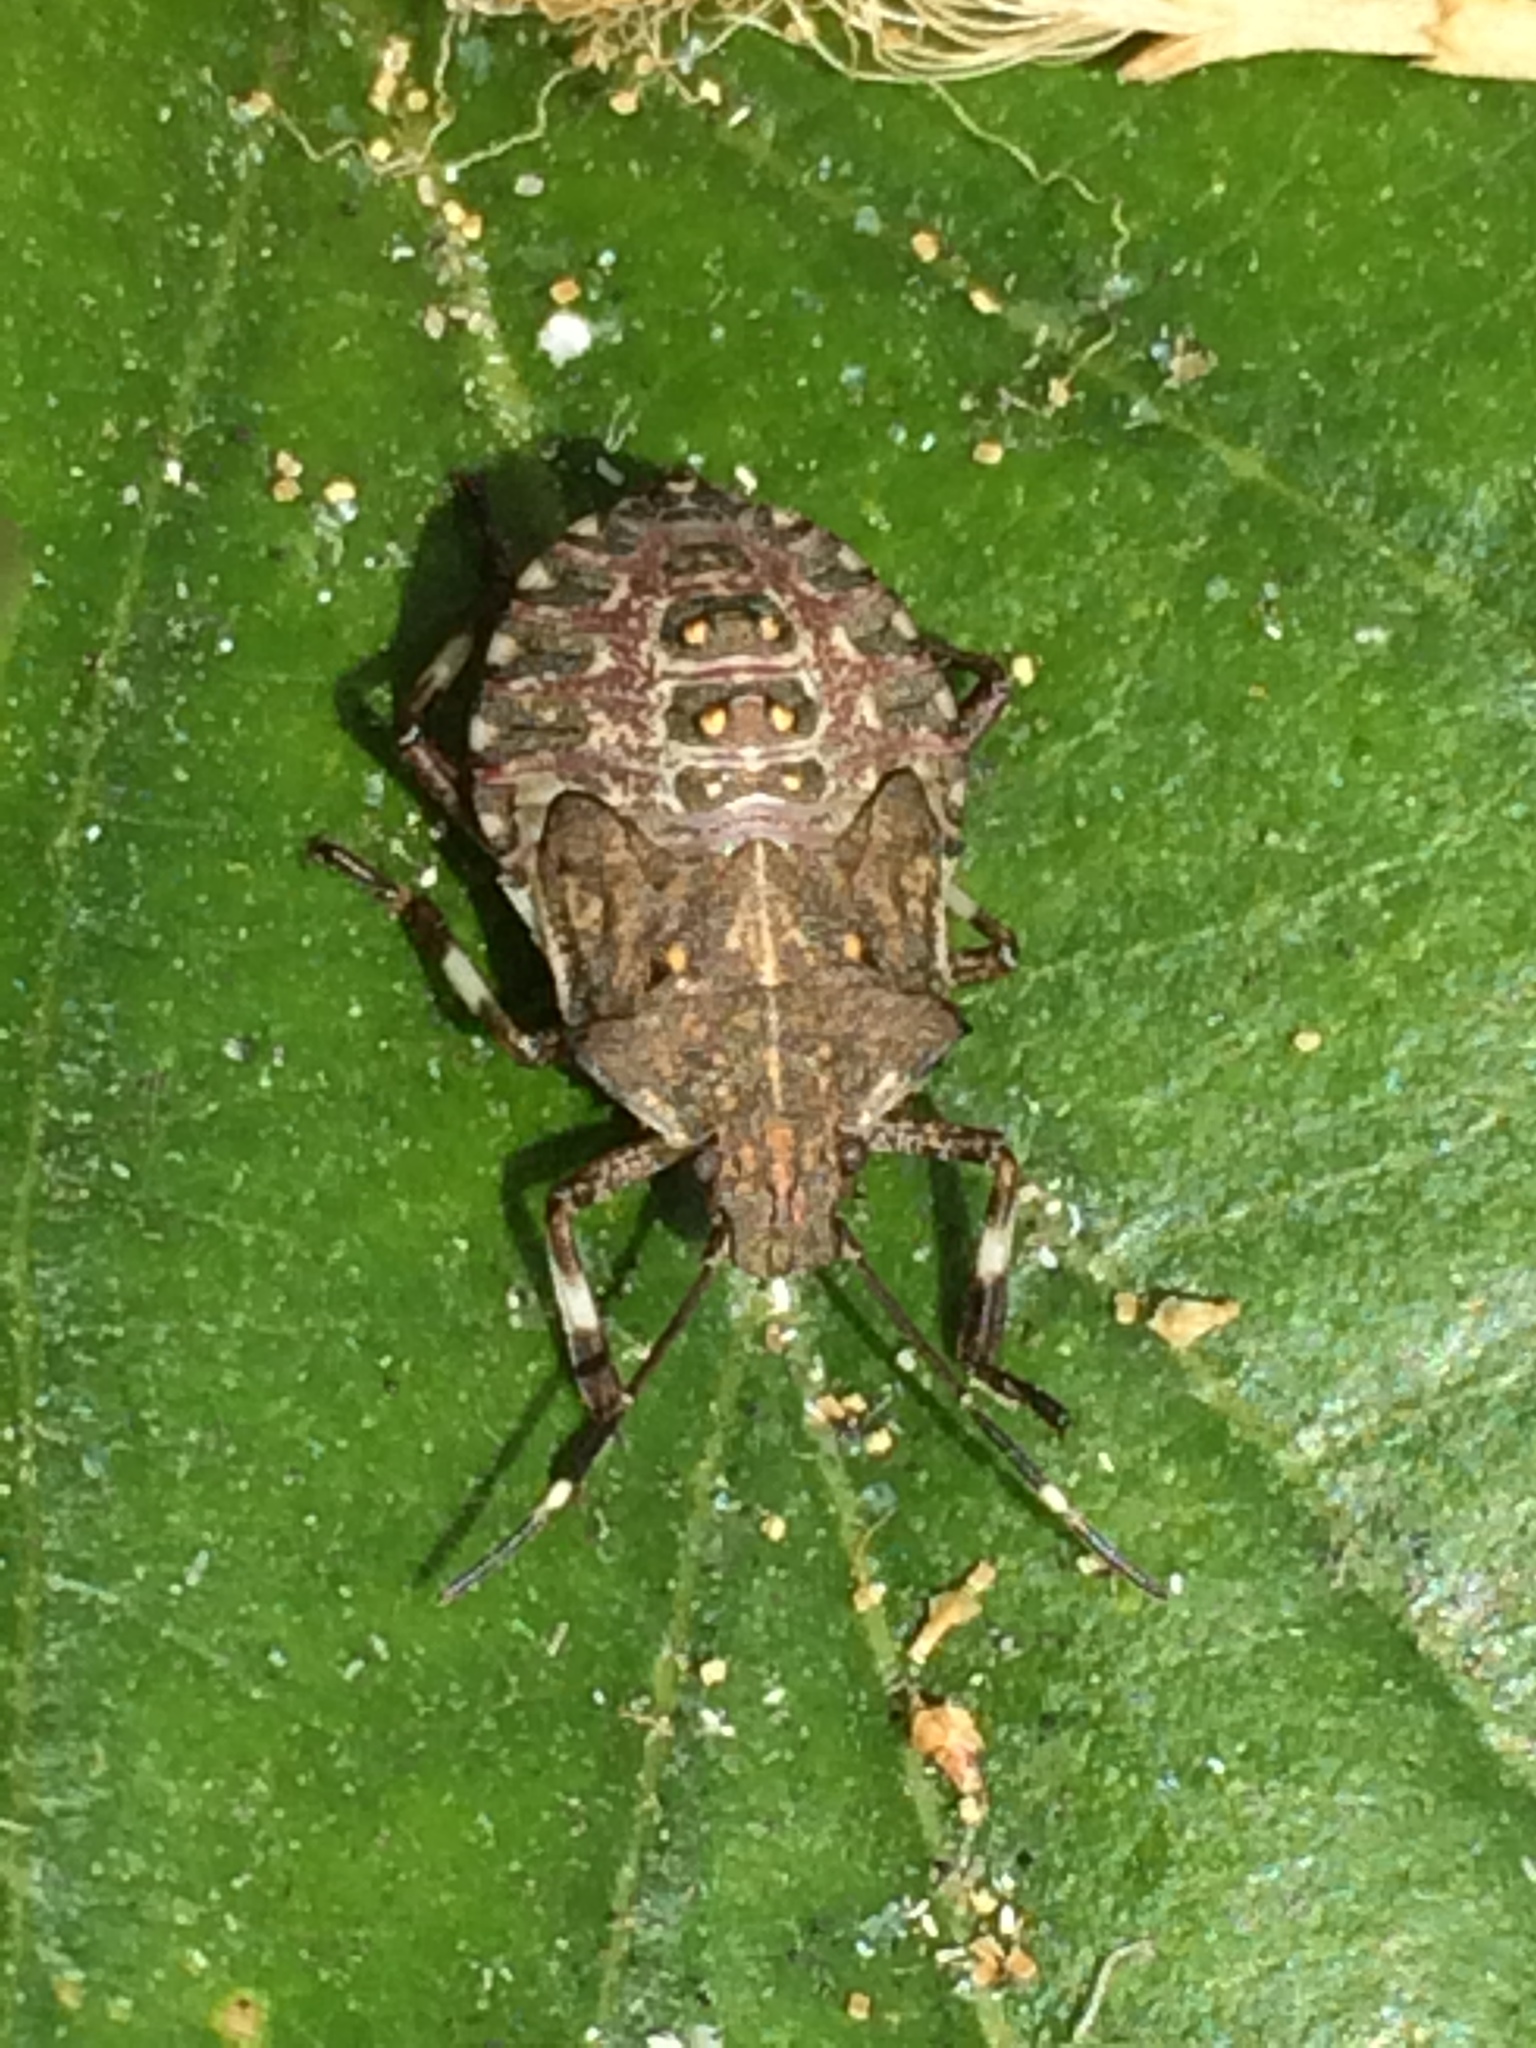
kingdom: Animalia
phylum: Arthropoda
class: Insecta
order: Hemiptera
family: Pentatomidae
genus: Halyomorpha
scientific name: Halyomorpha halys
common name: Brown marmorated stink bug
